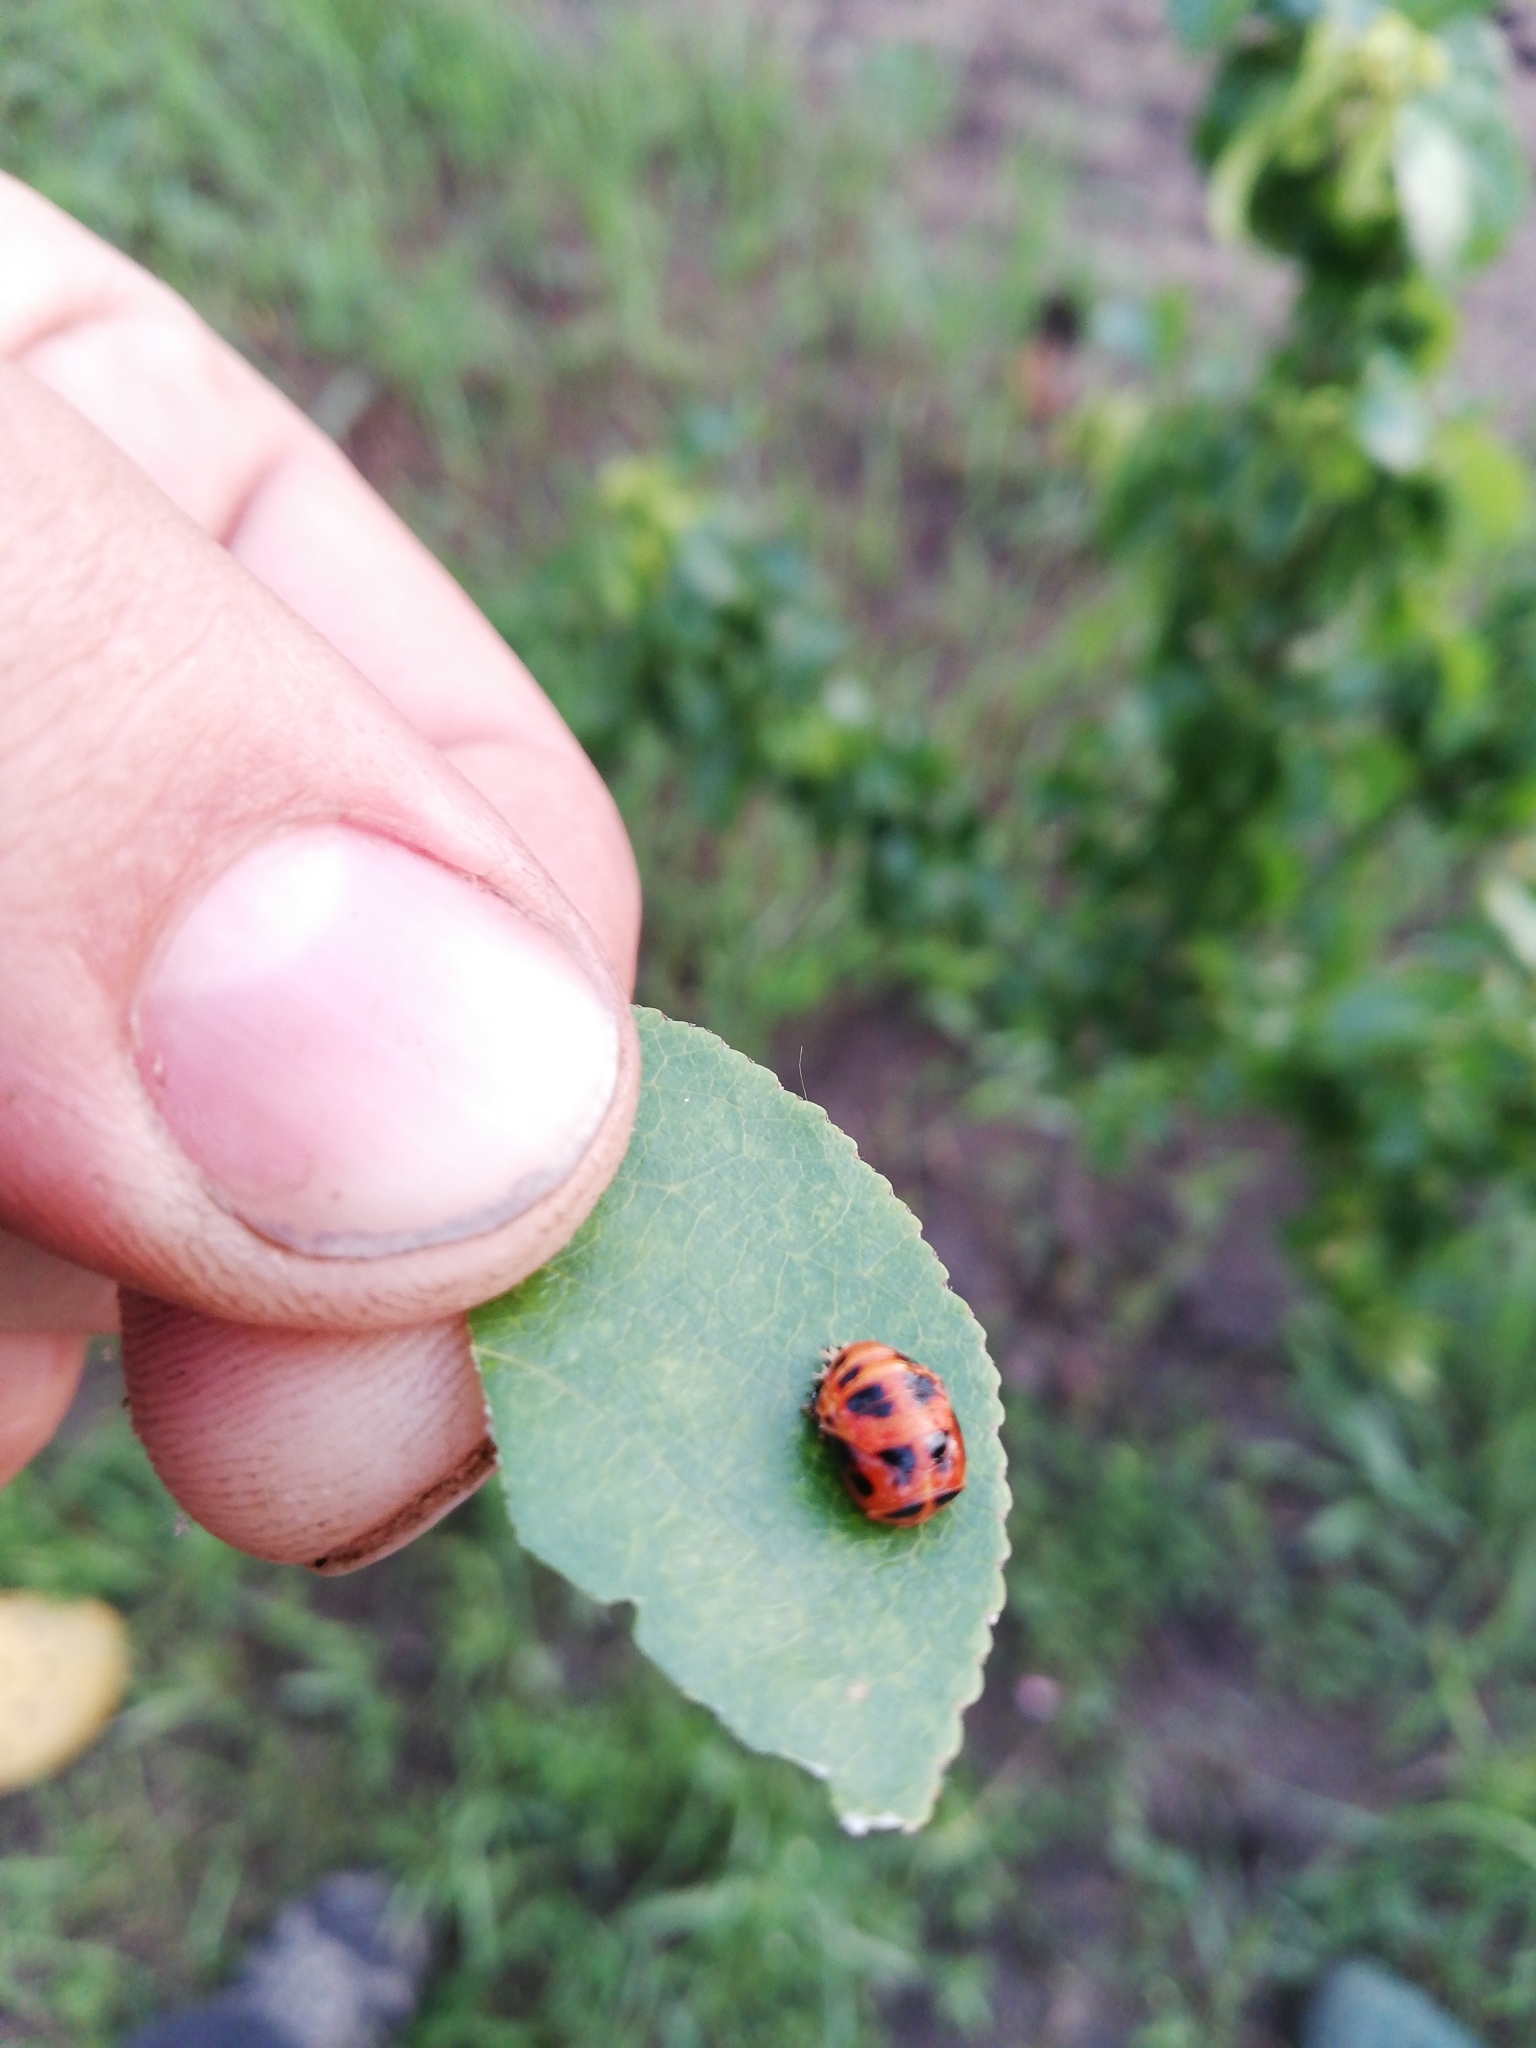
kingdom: Animalia
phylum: Arthropoda
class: Insecta
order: Coleoptera
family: Coccinellidae
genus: Harmonia
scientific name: Harmonia axyridis
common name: Harlequin ladybird
